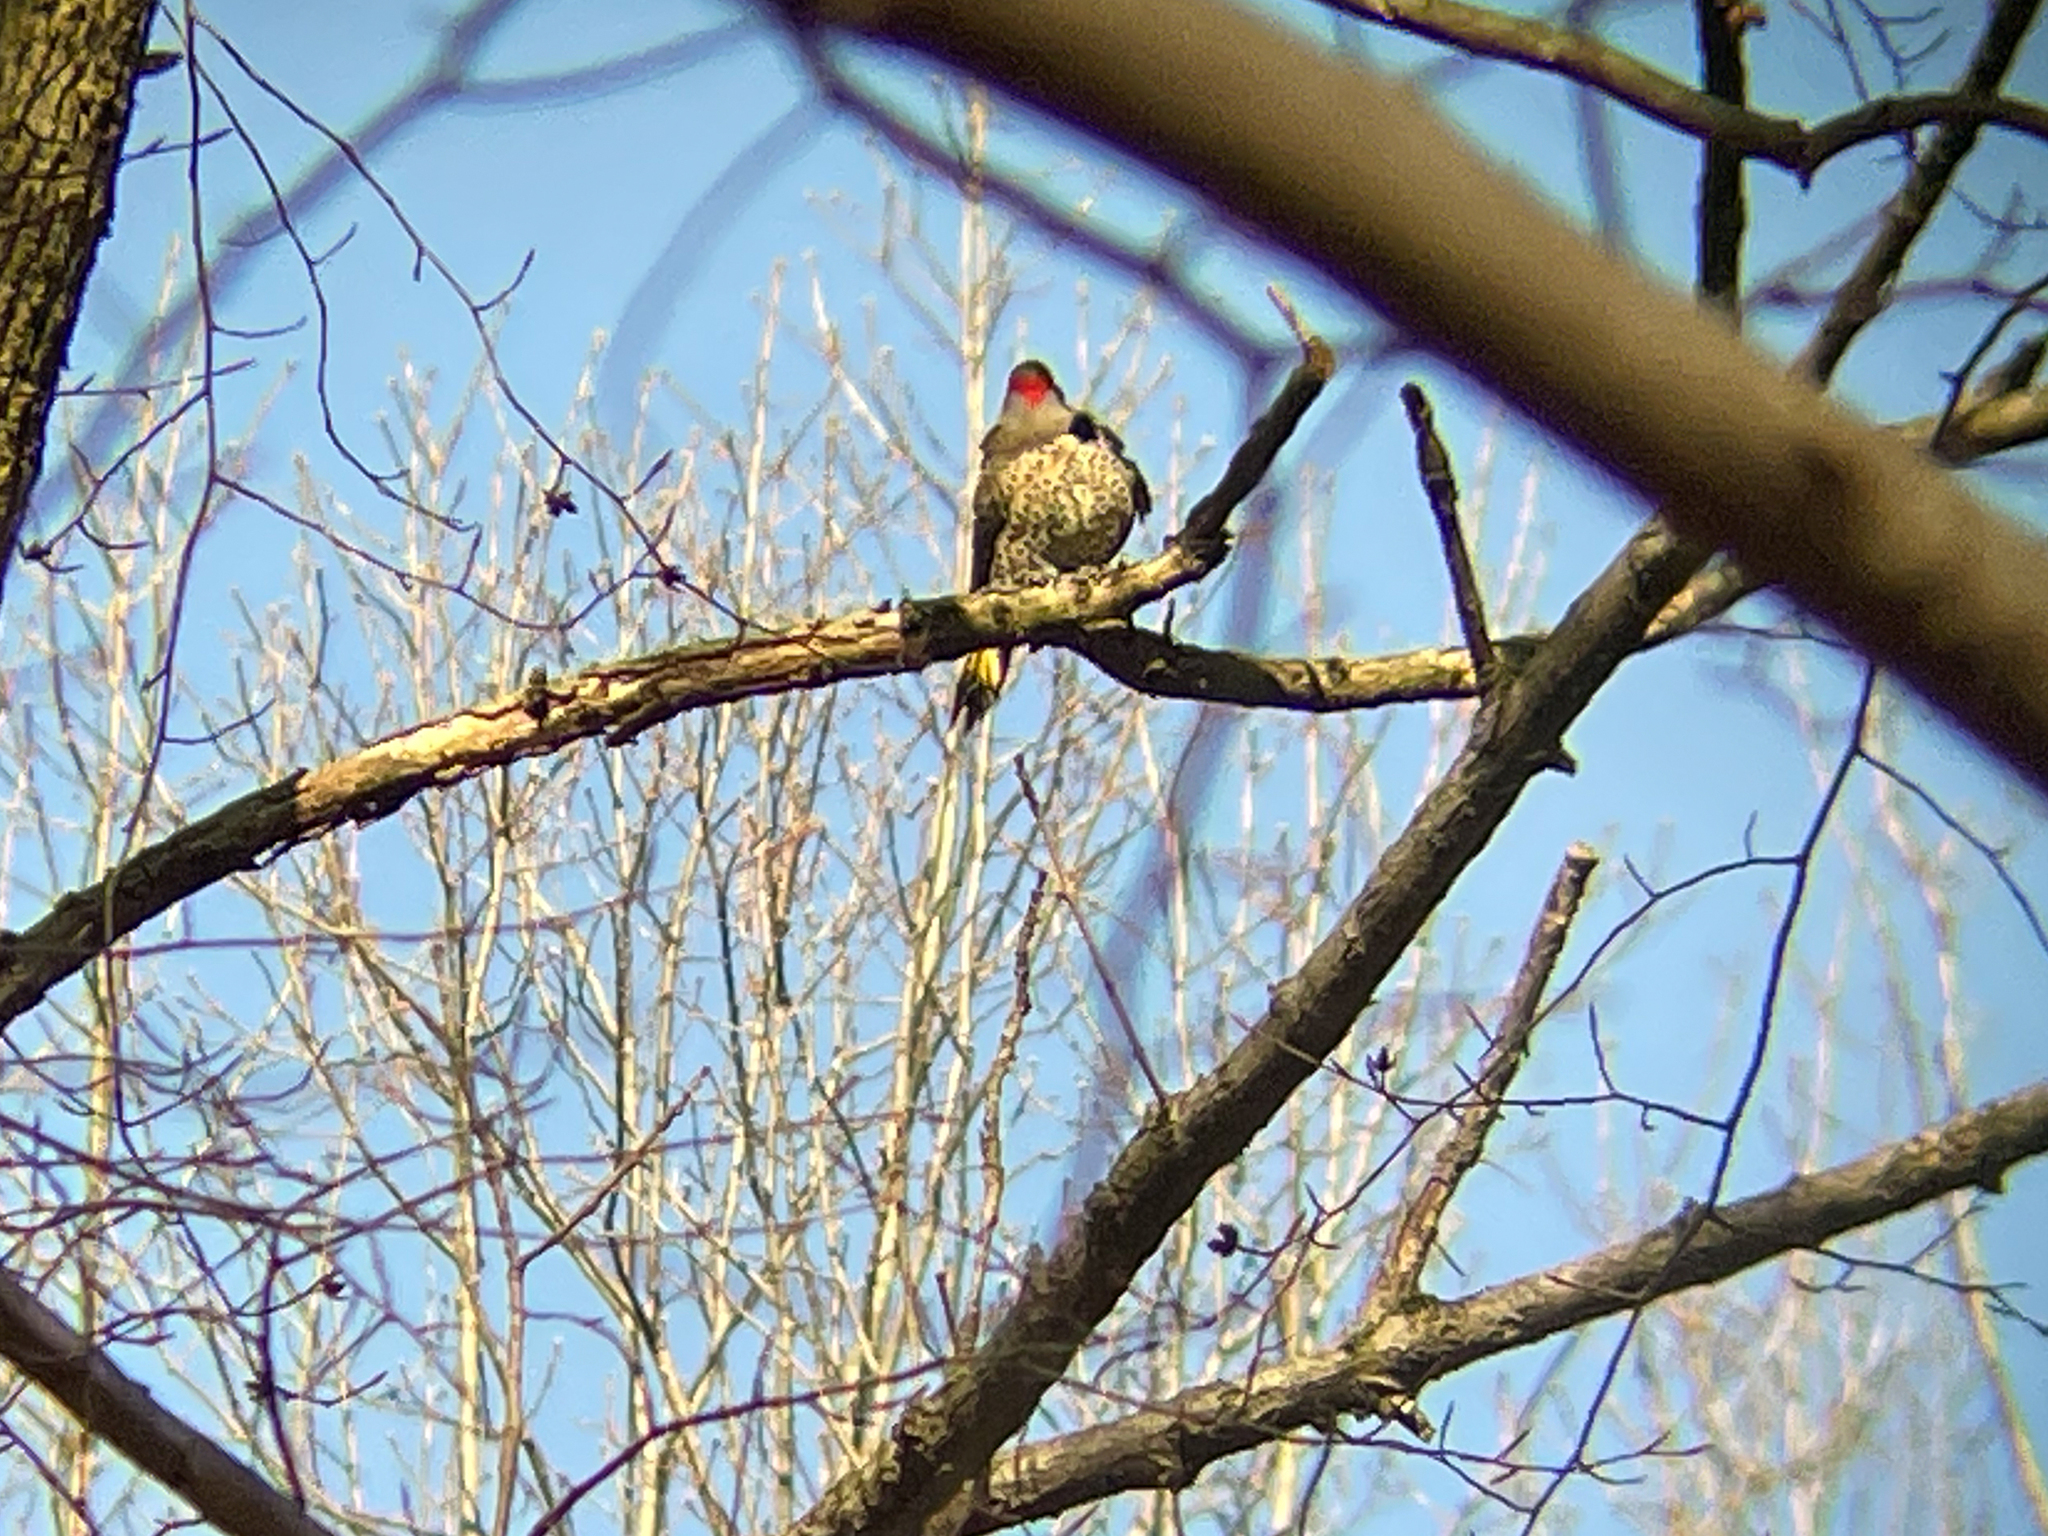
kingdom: Animalia
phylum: Chordata
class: Aves
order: Piciformes
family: Picidae
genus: Colaptes
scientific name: Colaptes auratus
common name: Northern flicker
